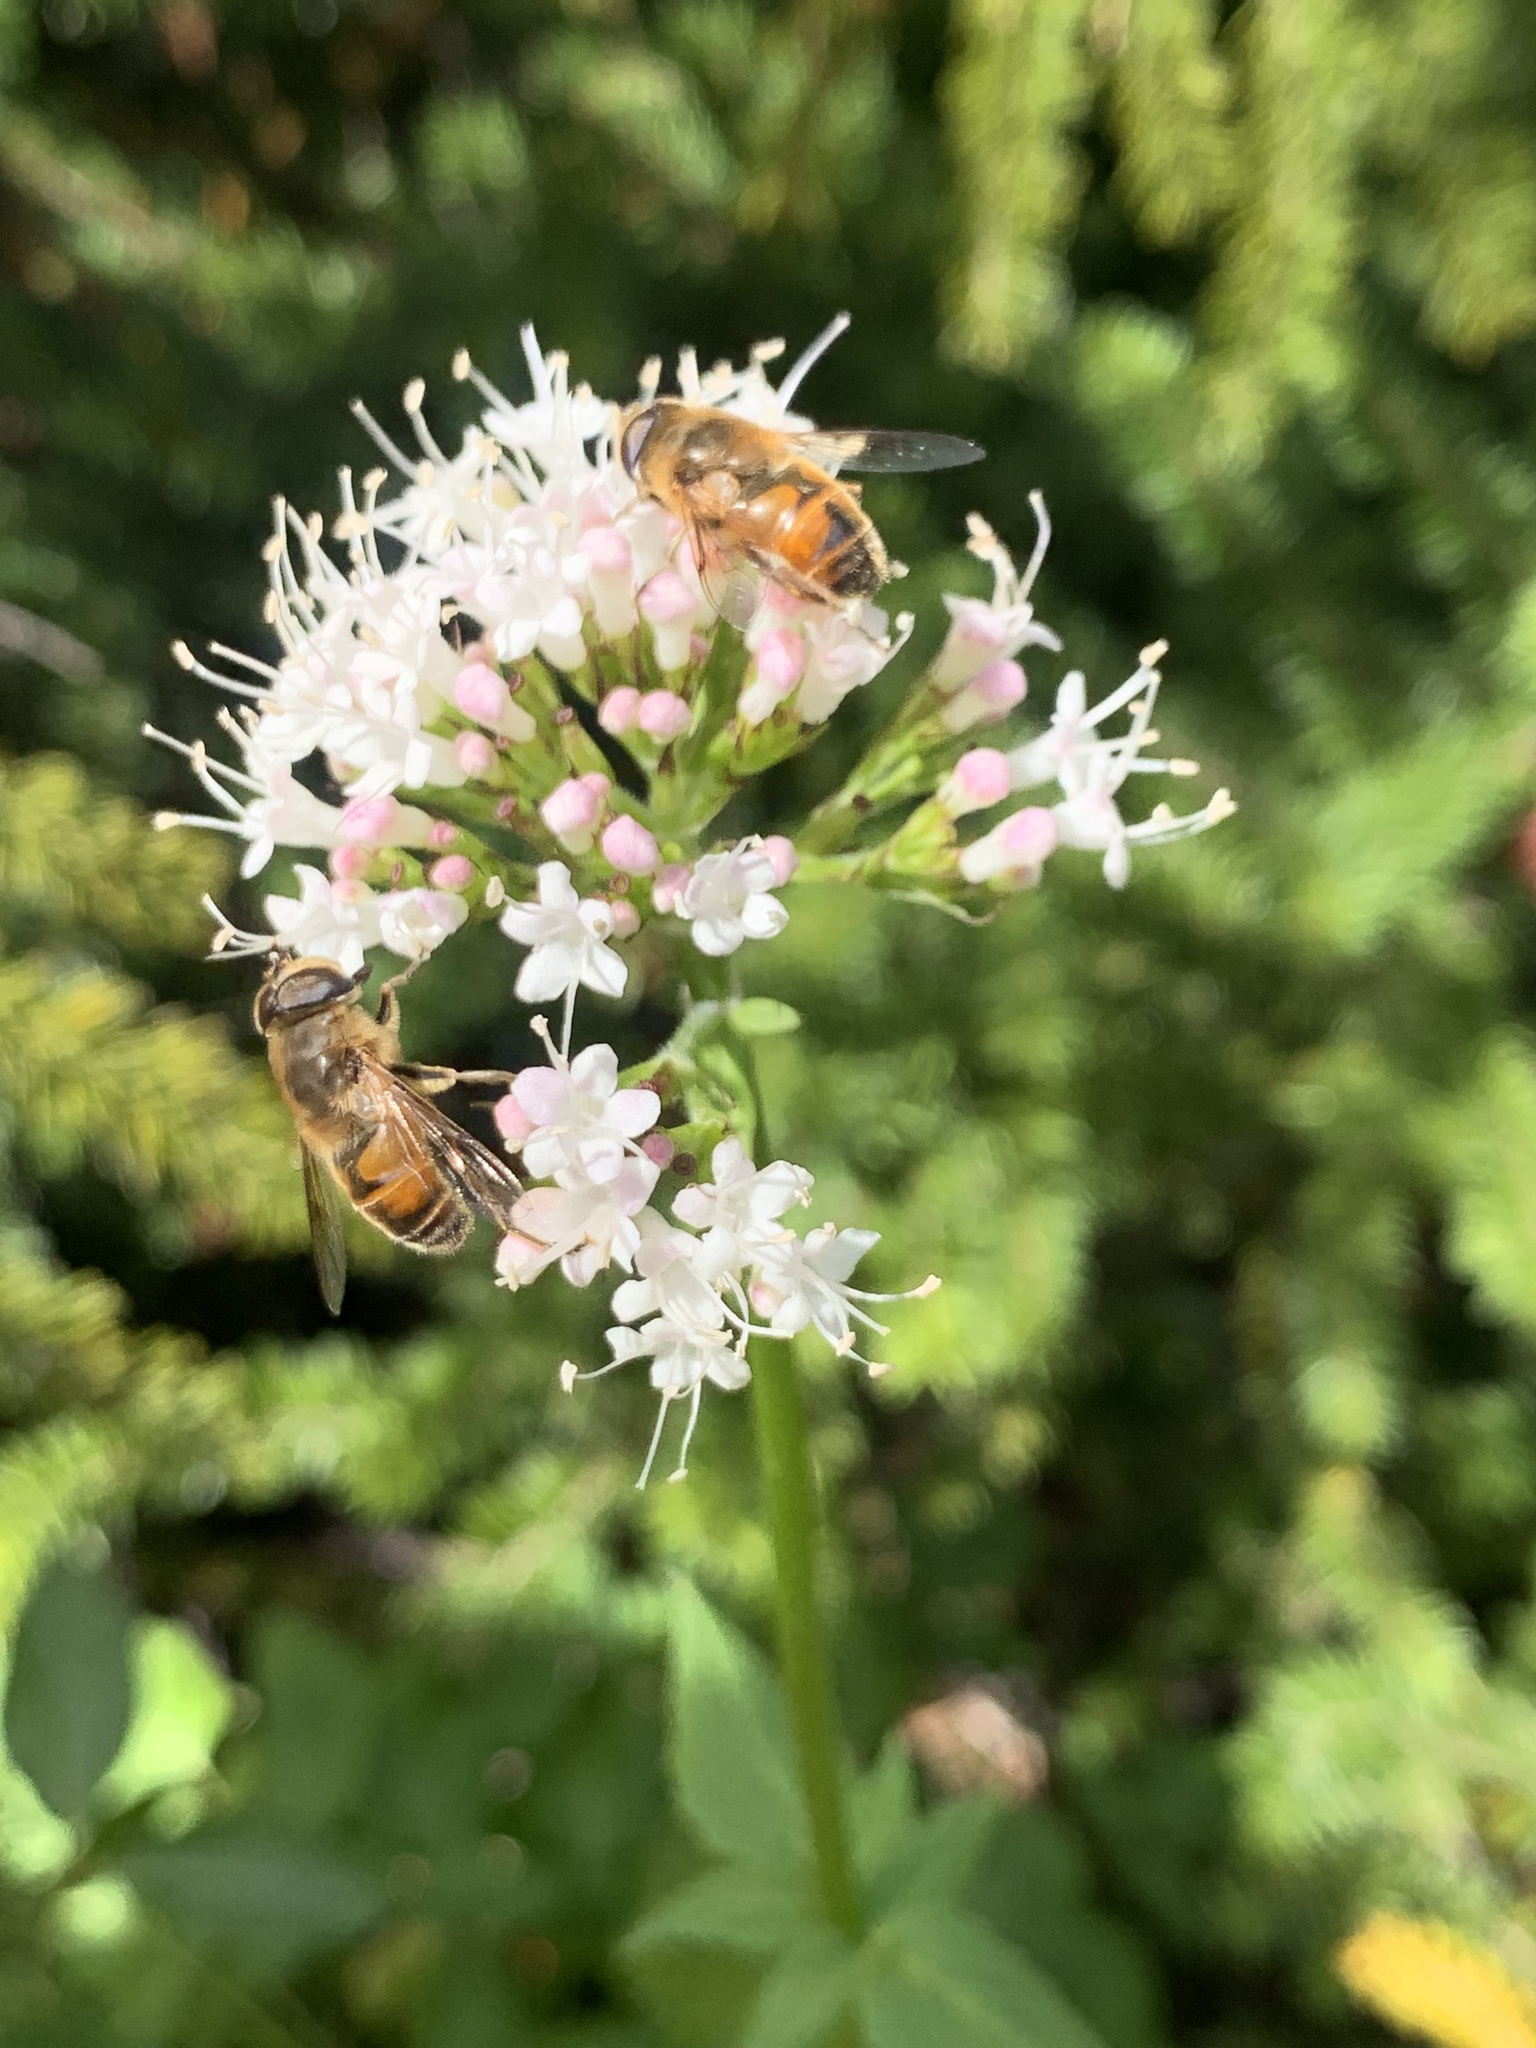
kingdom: Animalia
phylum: Arthropoda
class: Insecta
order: Diptera
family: Syrphidae
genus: Eristalis
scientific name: Eristalis tenax
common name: Drone fly
